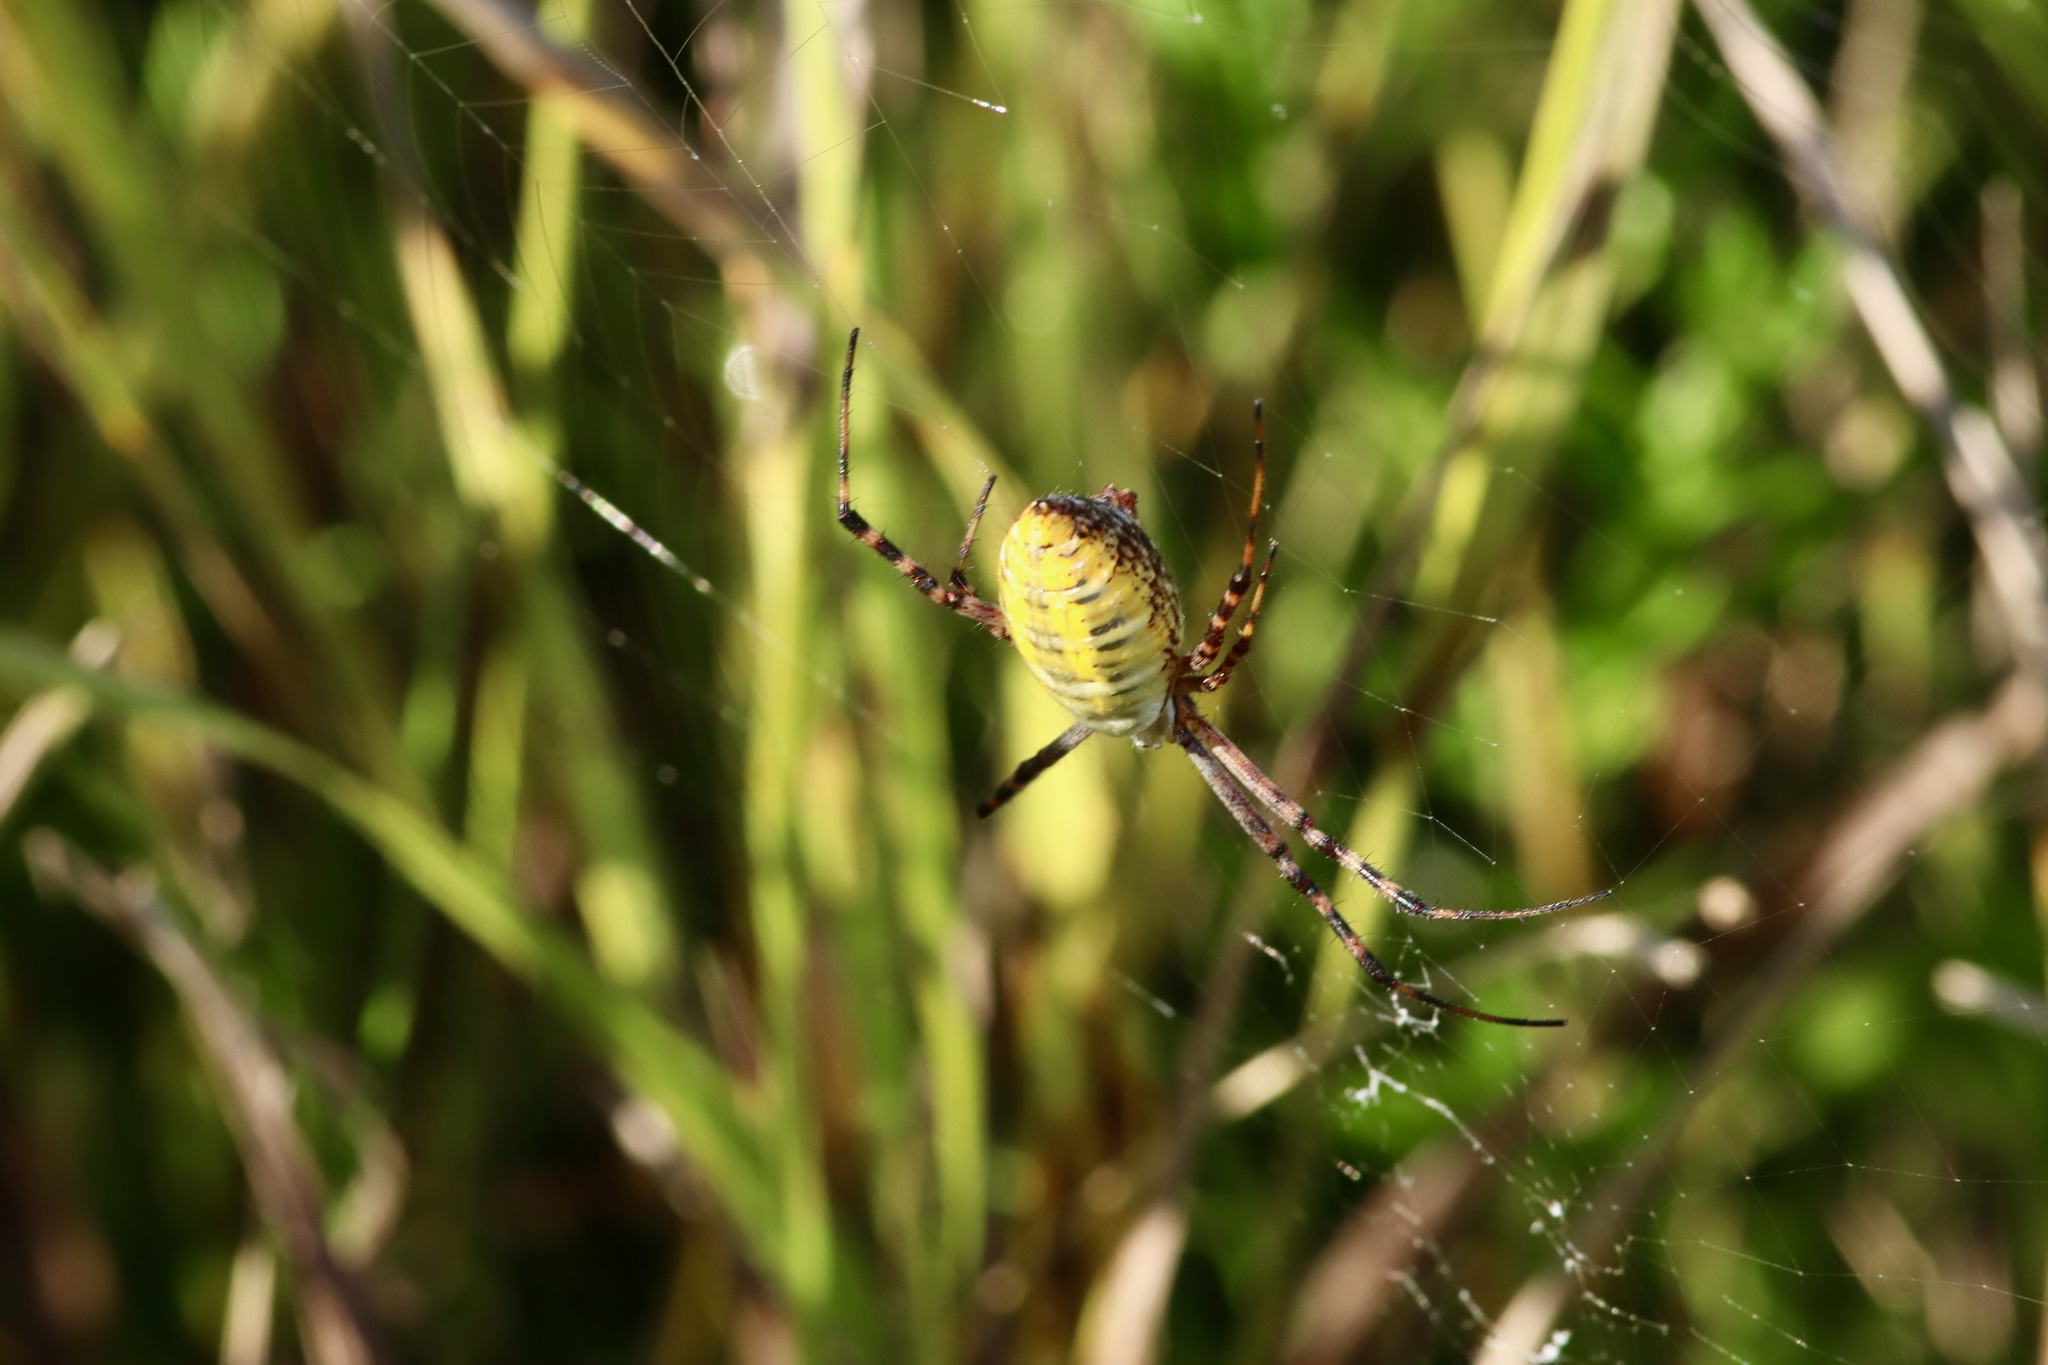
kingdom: Animalia
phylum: Arthropoda
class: Arachnida
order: Araneae
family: Araneidae
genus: Argiope
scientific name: Argiope trifasciata
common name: Banded garden spider
